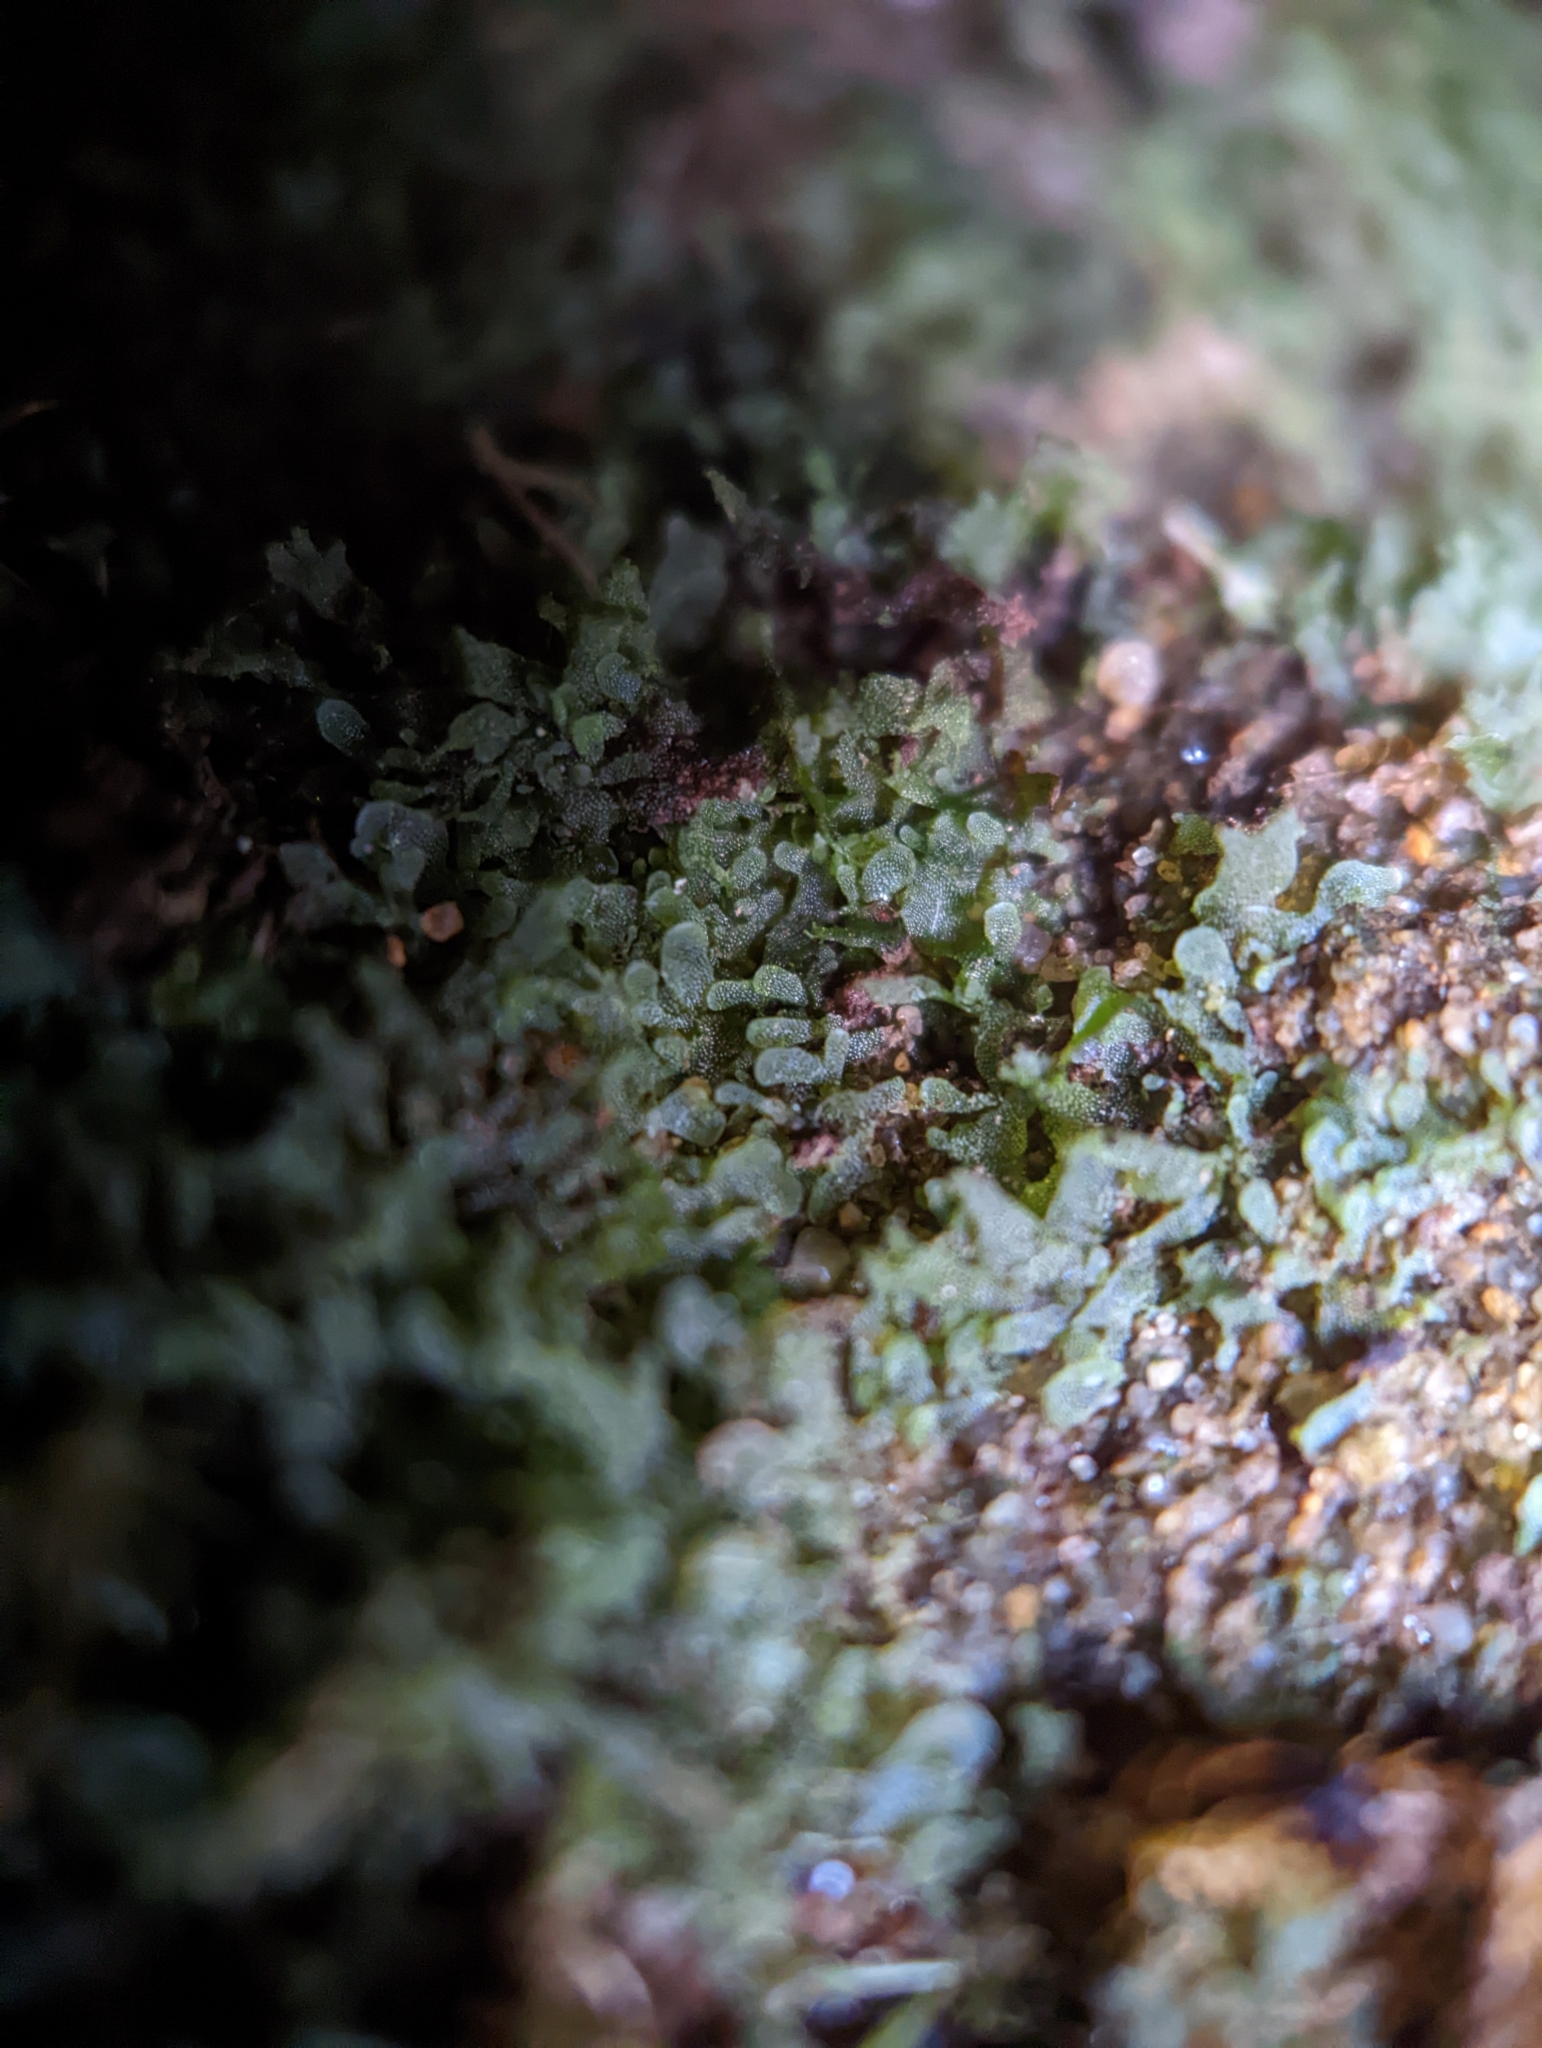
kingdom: Plantae
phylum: Tracheophyta
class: Polypodiopsida
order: Polypodiales
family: Pteridaceae
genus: Vittaria
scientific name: Vittaria appalachiana
